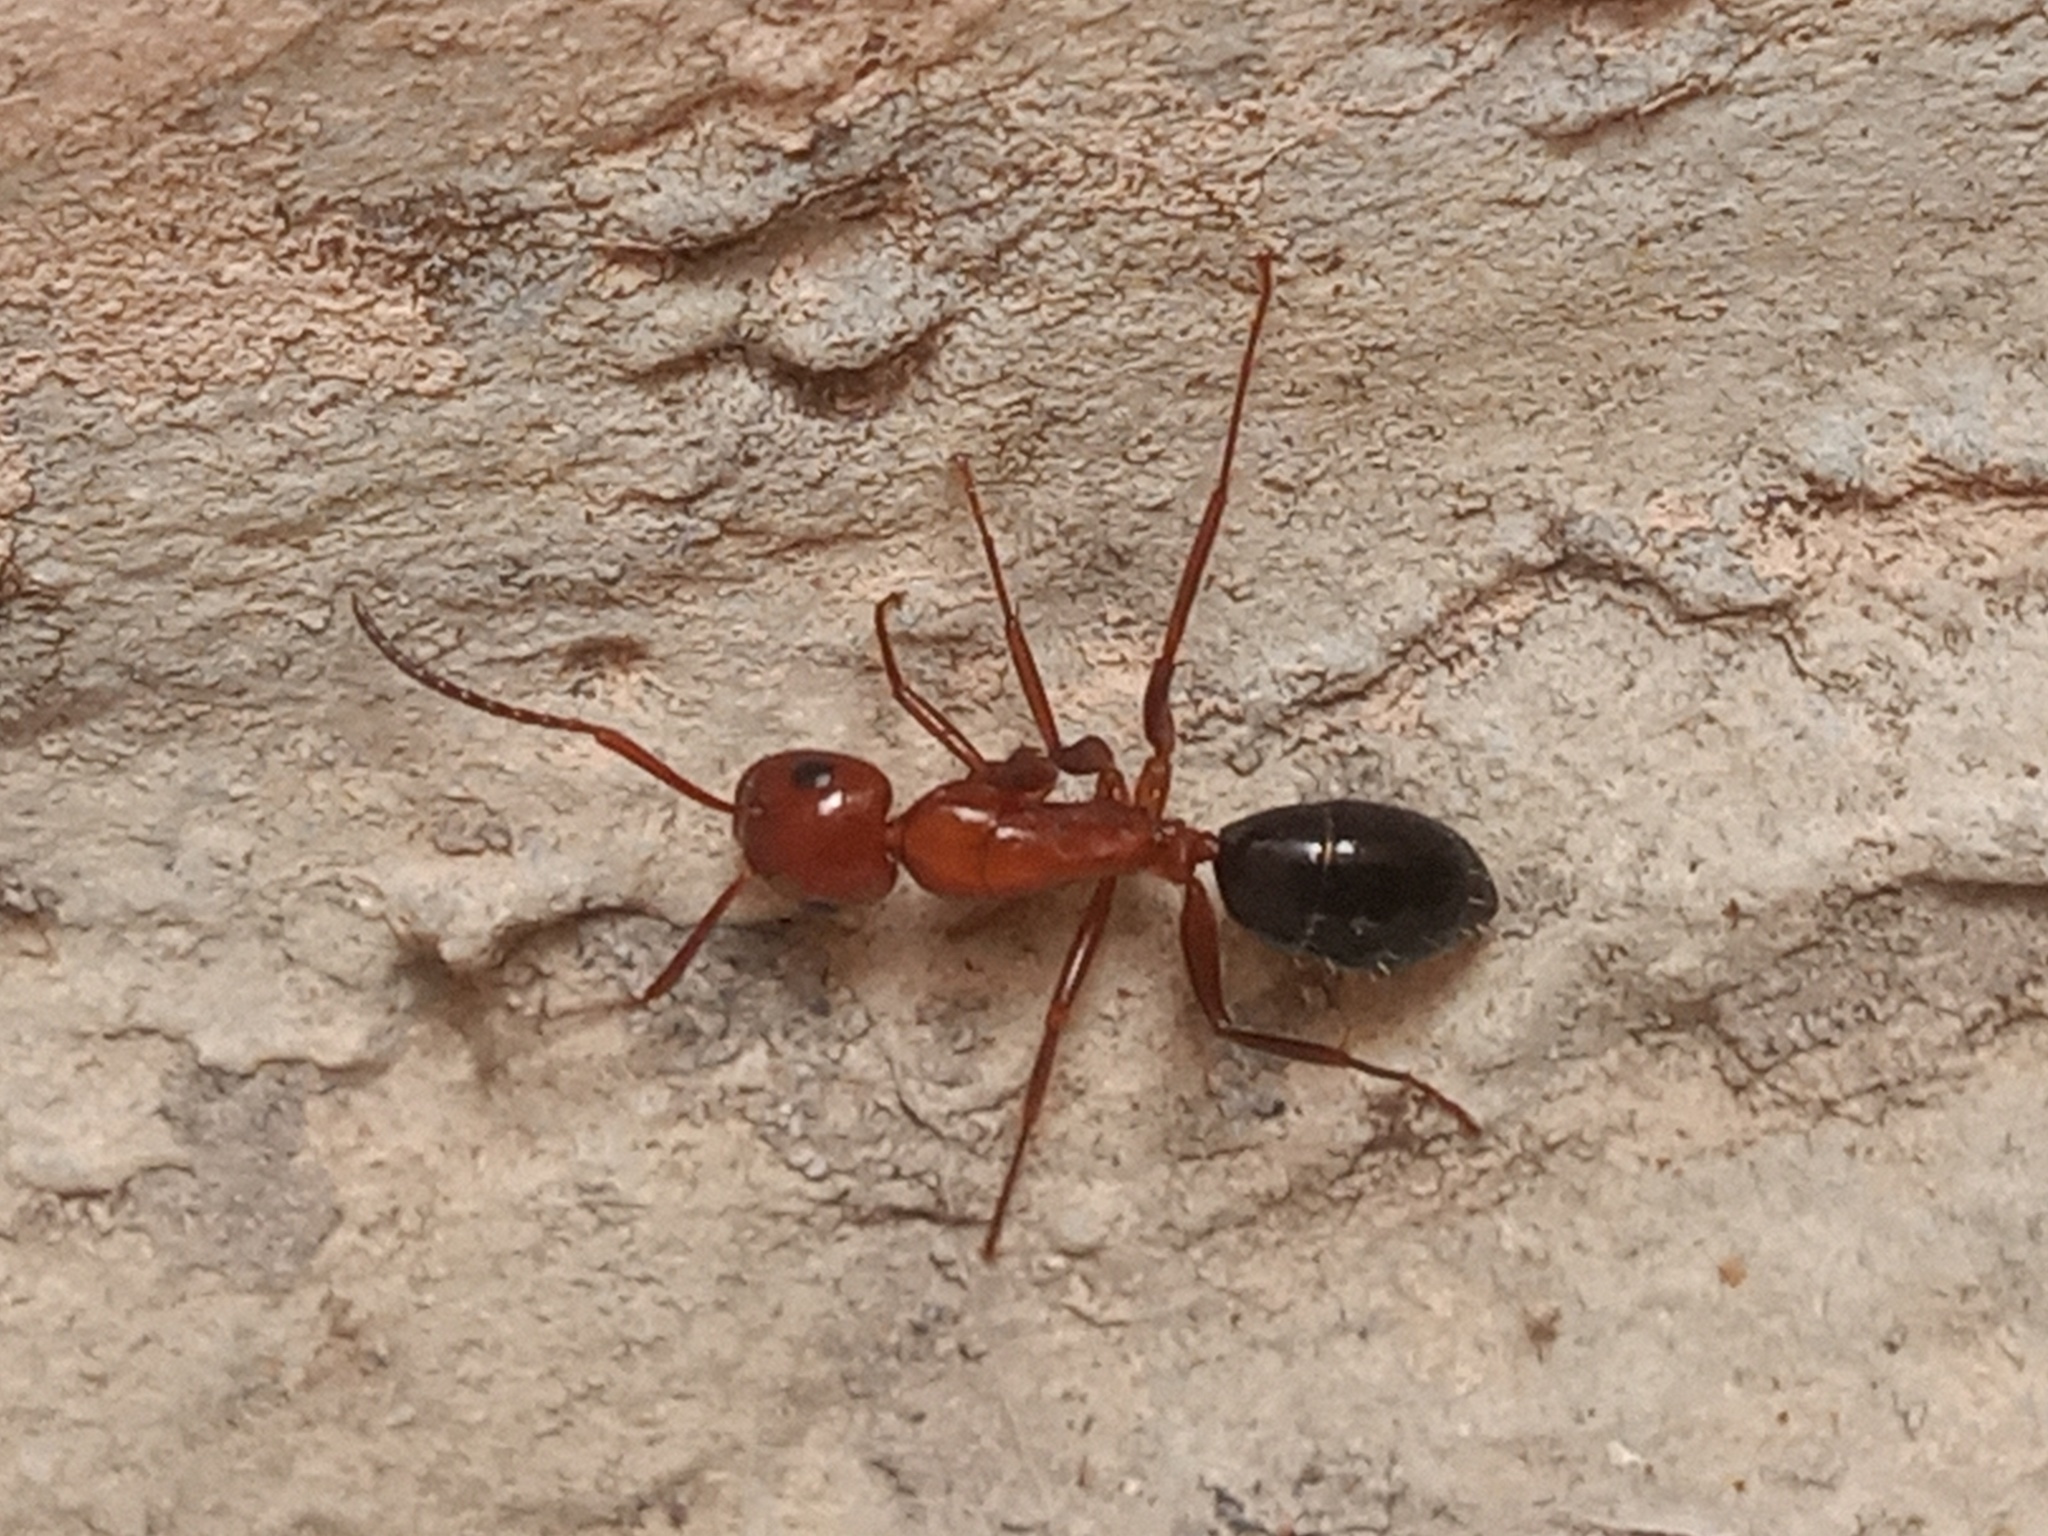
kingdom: Animalia
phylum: Arthropoda
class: Insecta
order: Hymenoptera
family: Formicidae
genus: Camponotus
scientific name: Camponotus decipiens
